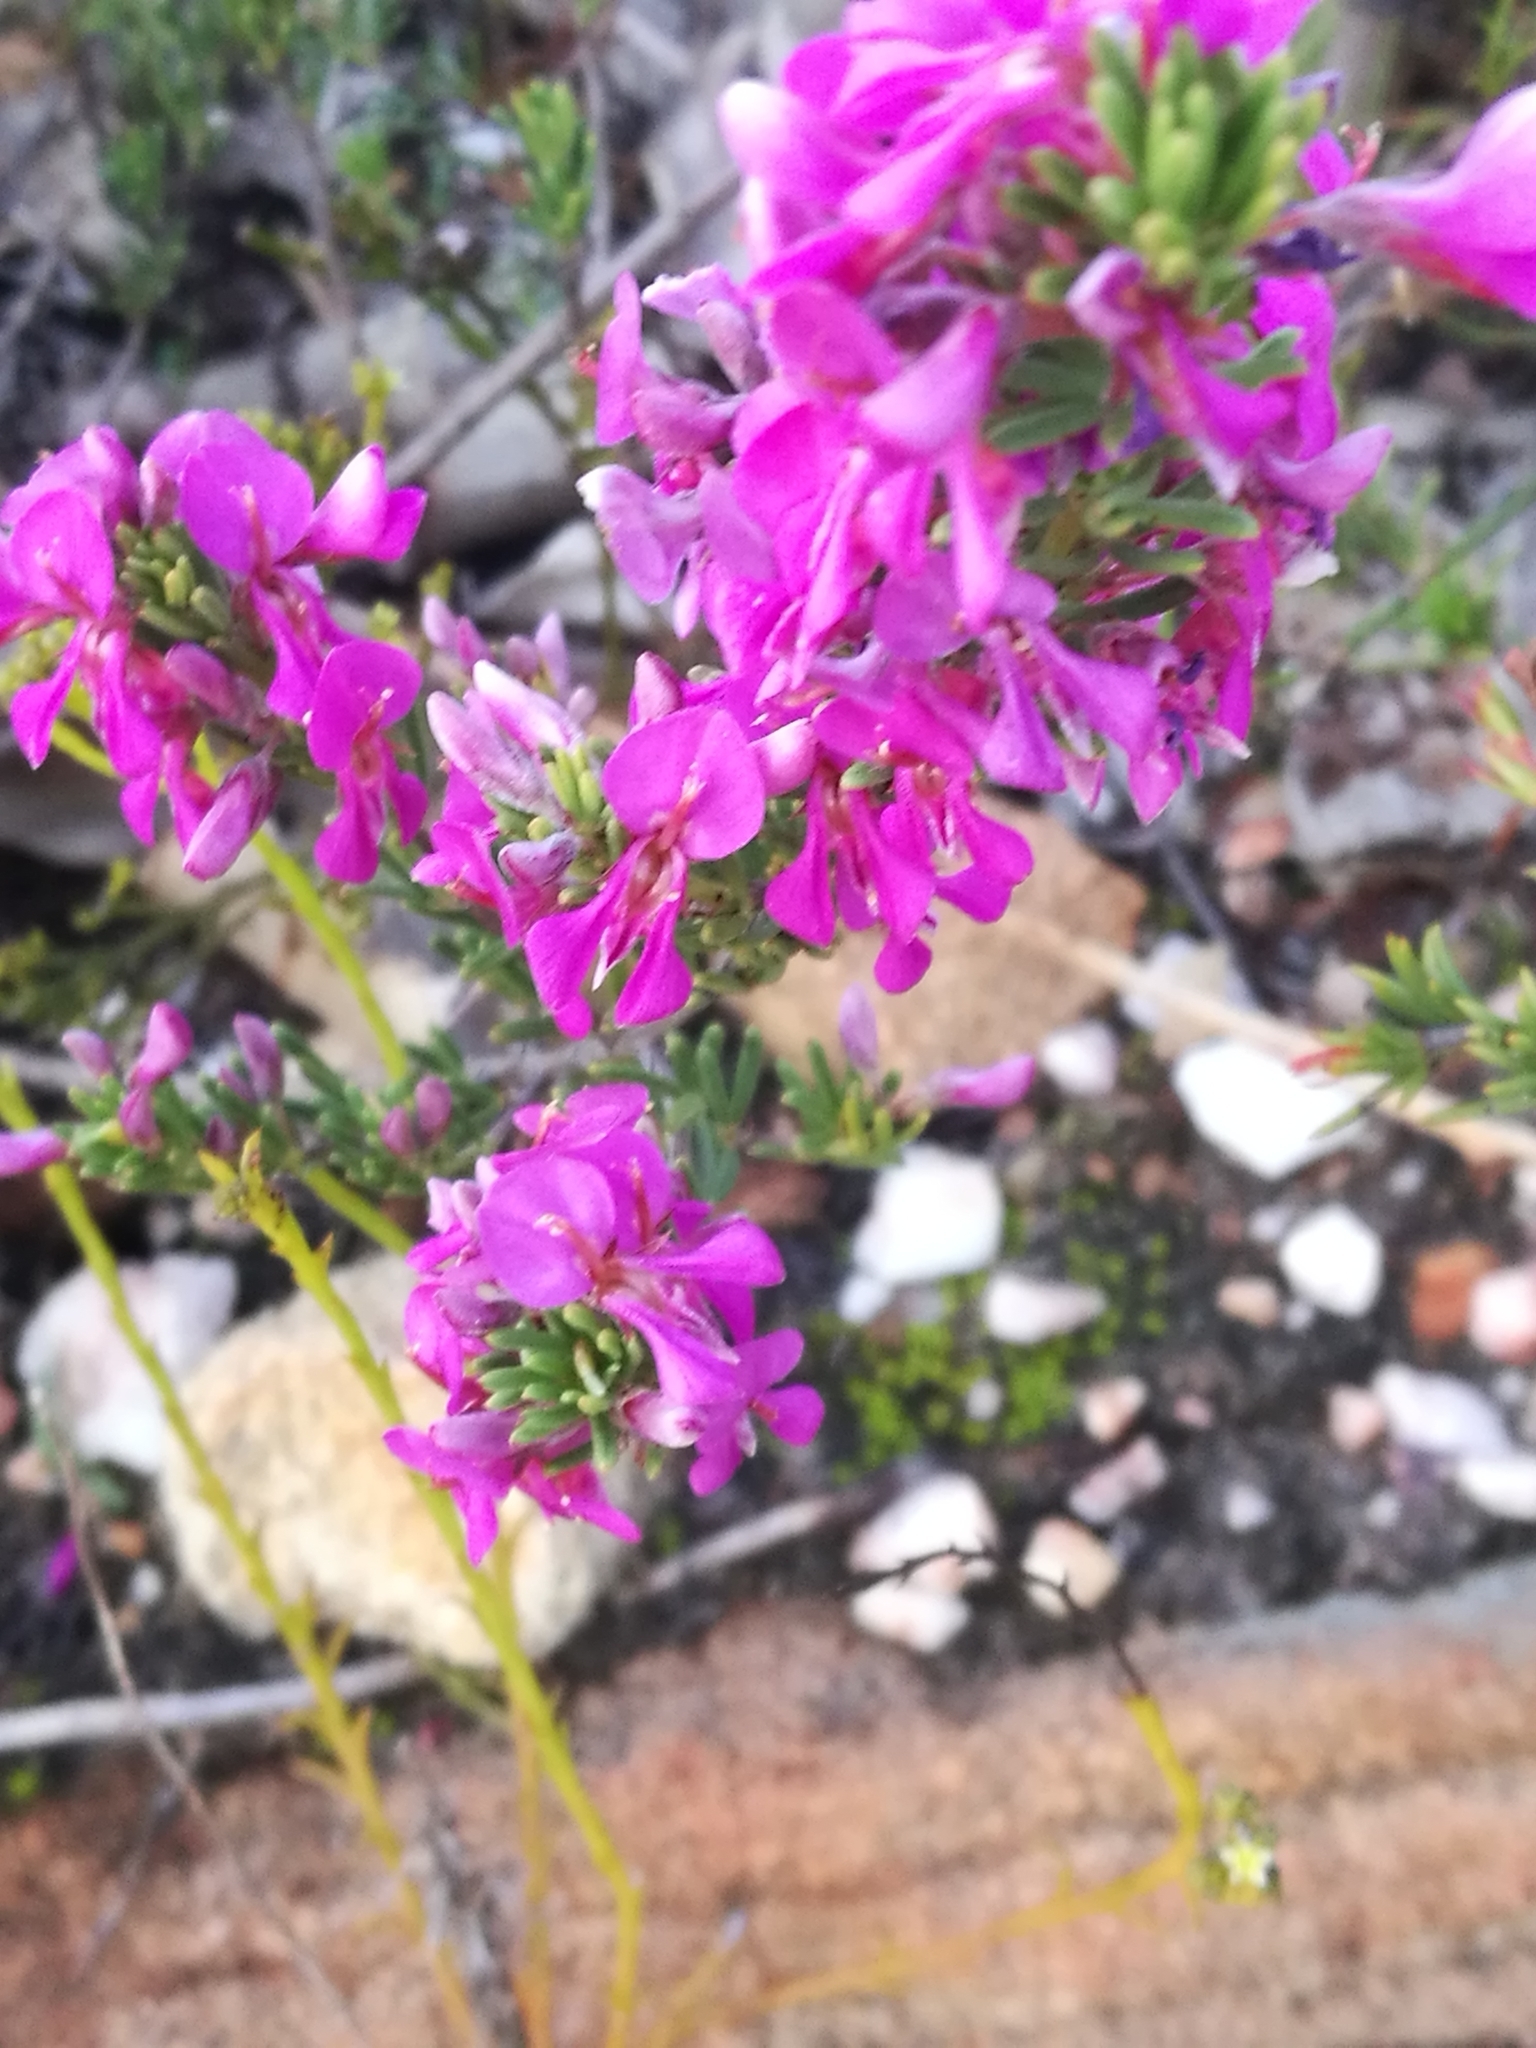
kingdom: Plantae
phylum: Tracheophyta
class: Magnoliopsida
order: Fabales
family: Fabaceae
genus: Indigofera
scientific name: Indigofera sulcata
